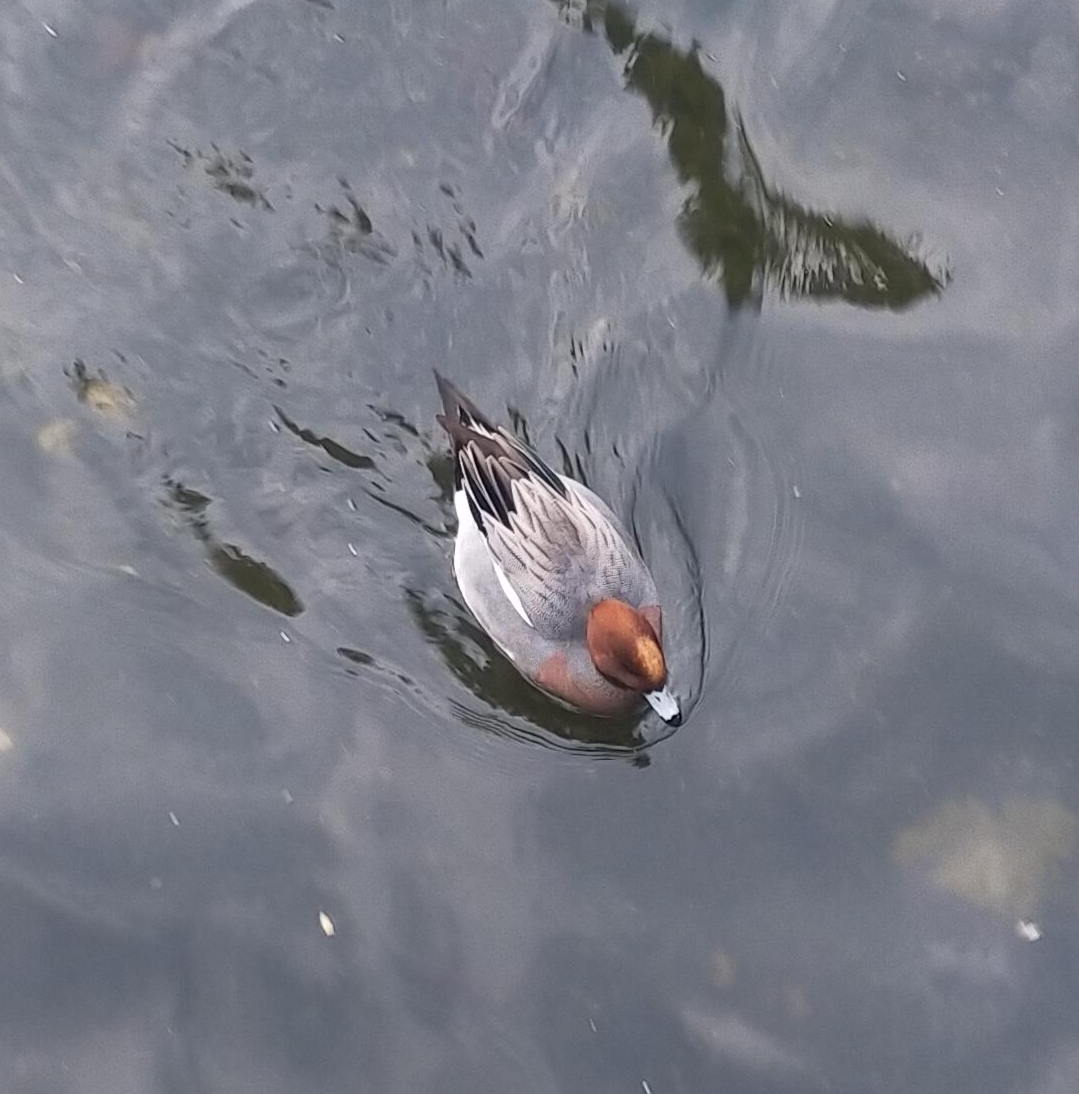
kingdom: Animalia
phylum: Chordata
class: Aves
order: Anseriformes
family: Anatidae
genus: Mareca
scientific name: Mareca penelope
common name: Eurasian wigeon
